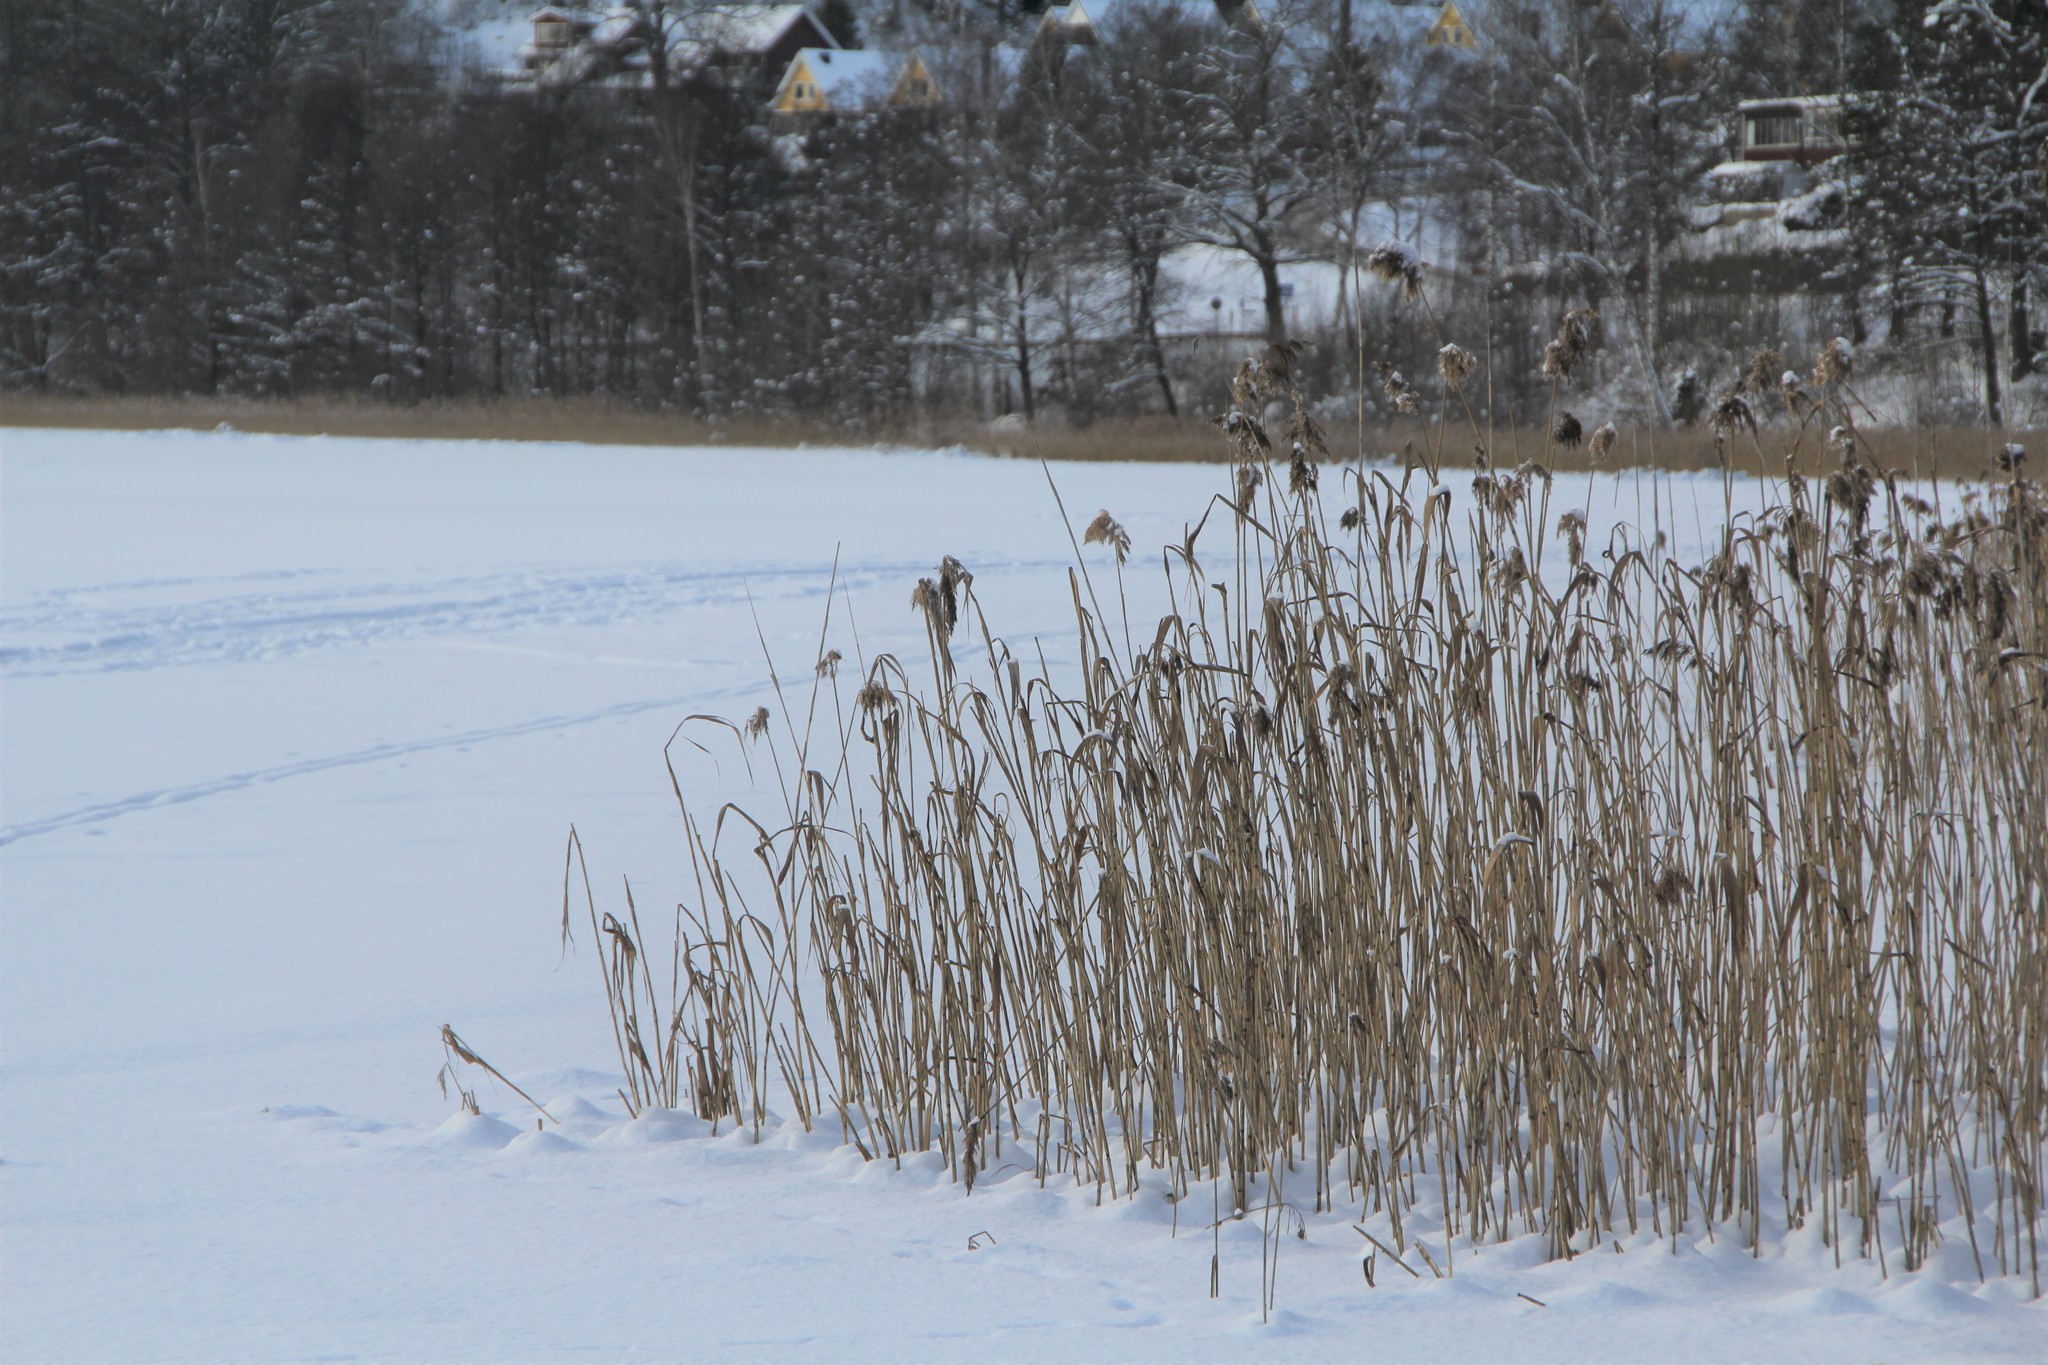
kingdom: Plantae
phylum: Tracheophyta
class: Liliopsida
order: Poales
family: Poaceae
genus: Phragmites
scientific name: Phragmites australis
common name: Common reed
